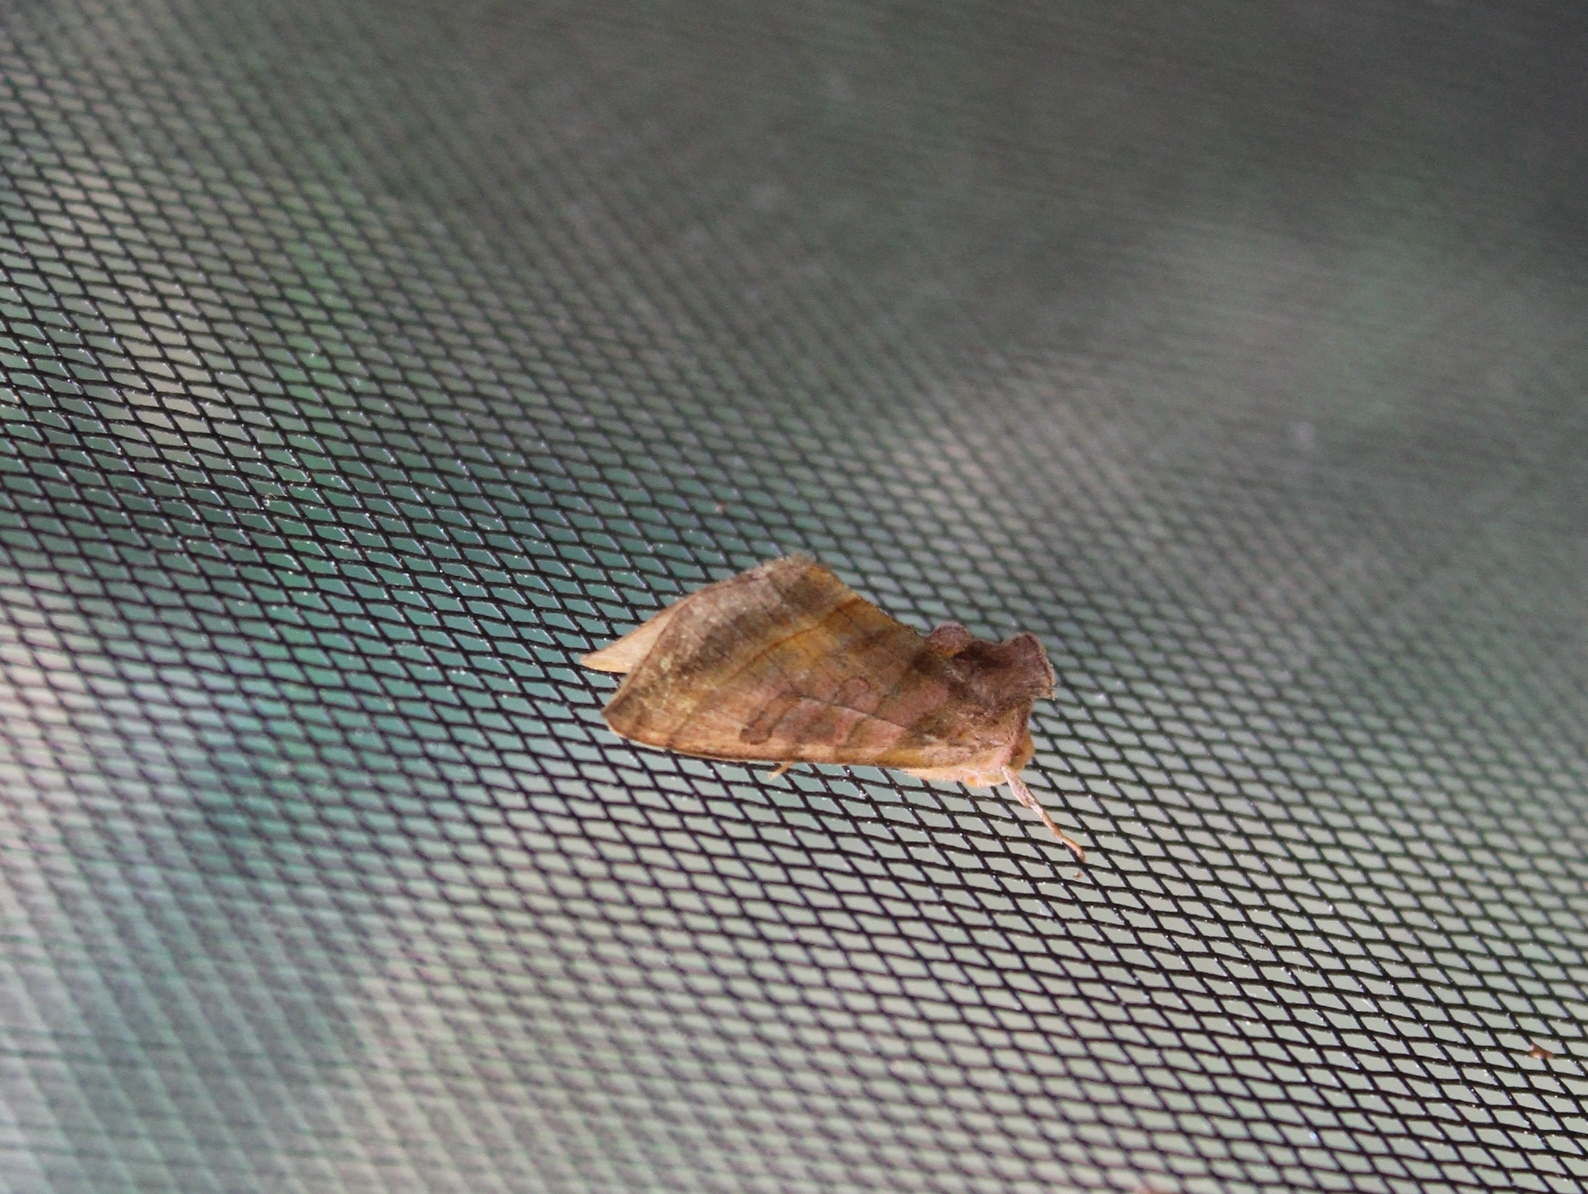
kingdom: Animalia
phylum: Arthropoda
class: Insecta
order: Lepidoptera
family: Noctuidae
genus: Diachrysia
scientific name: Diachrysia aereoides
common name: Dark-spotted looper moth
